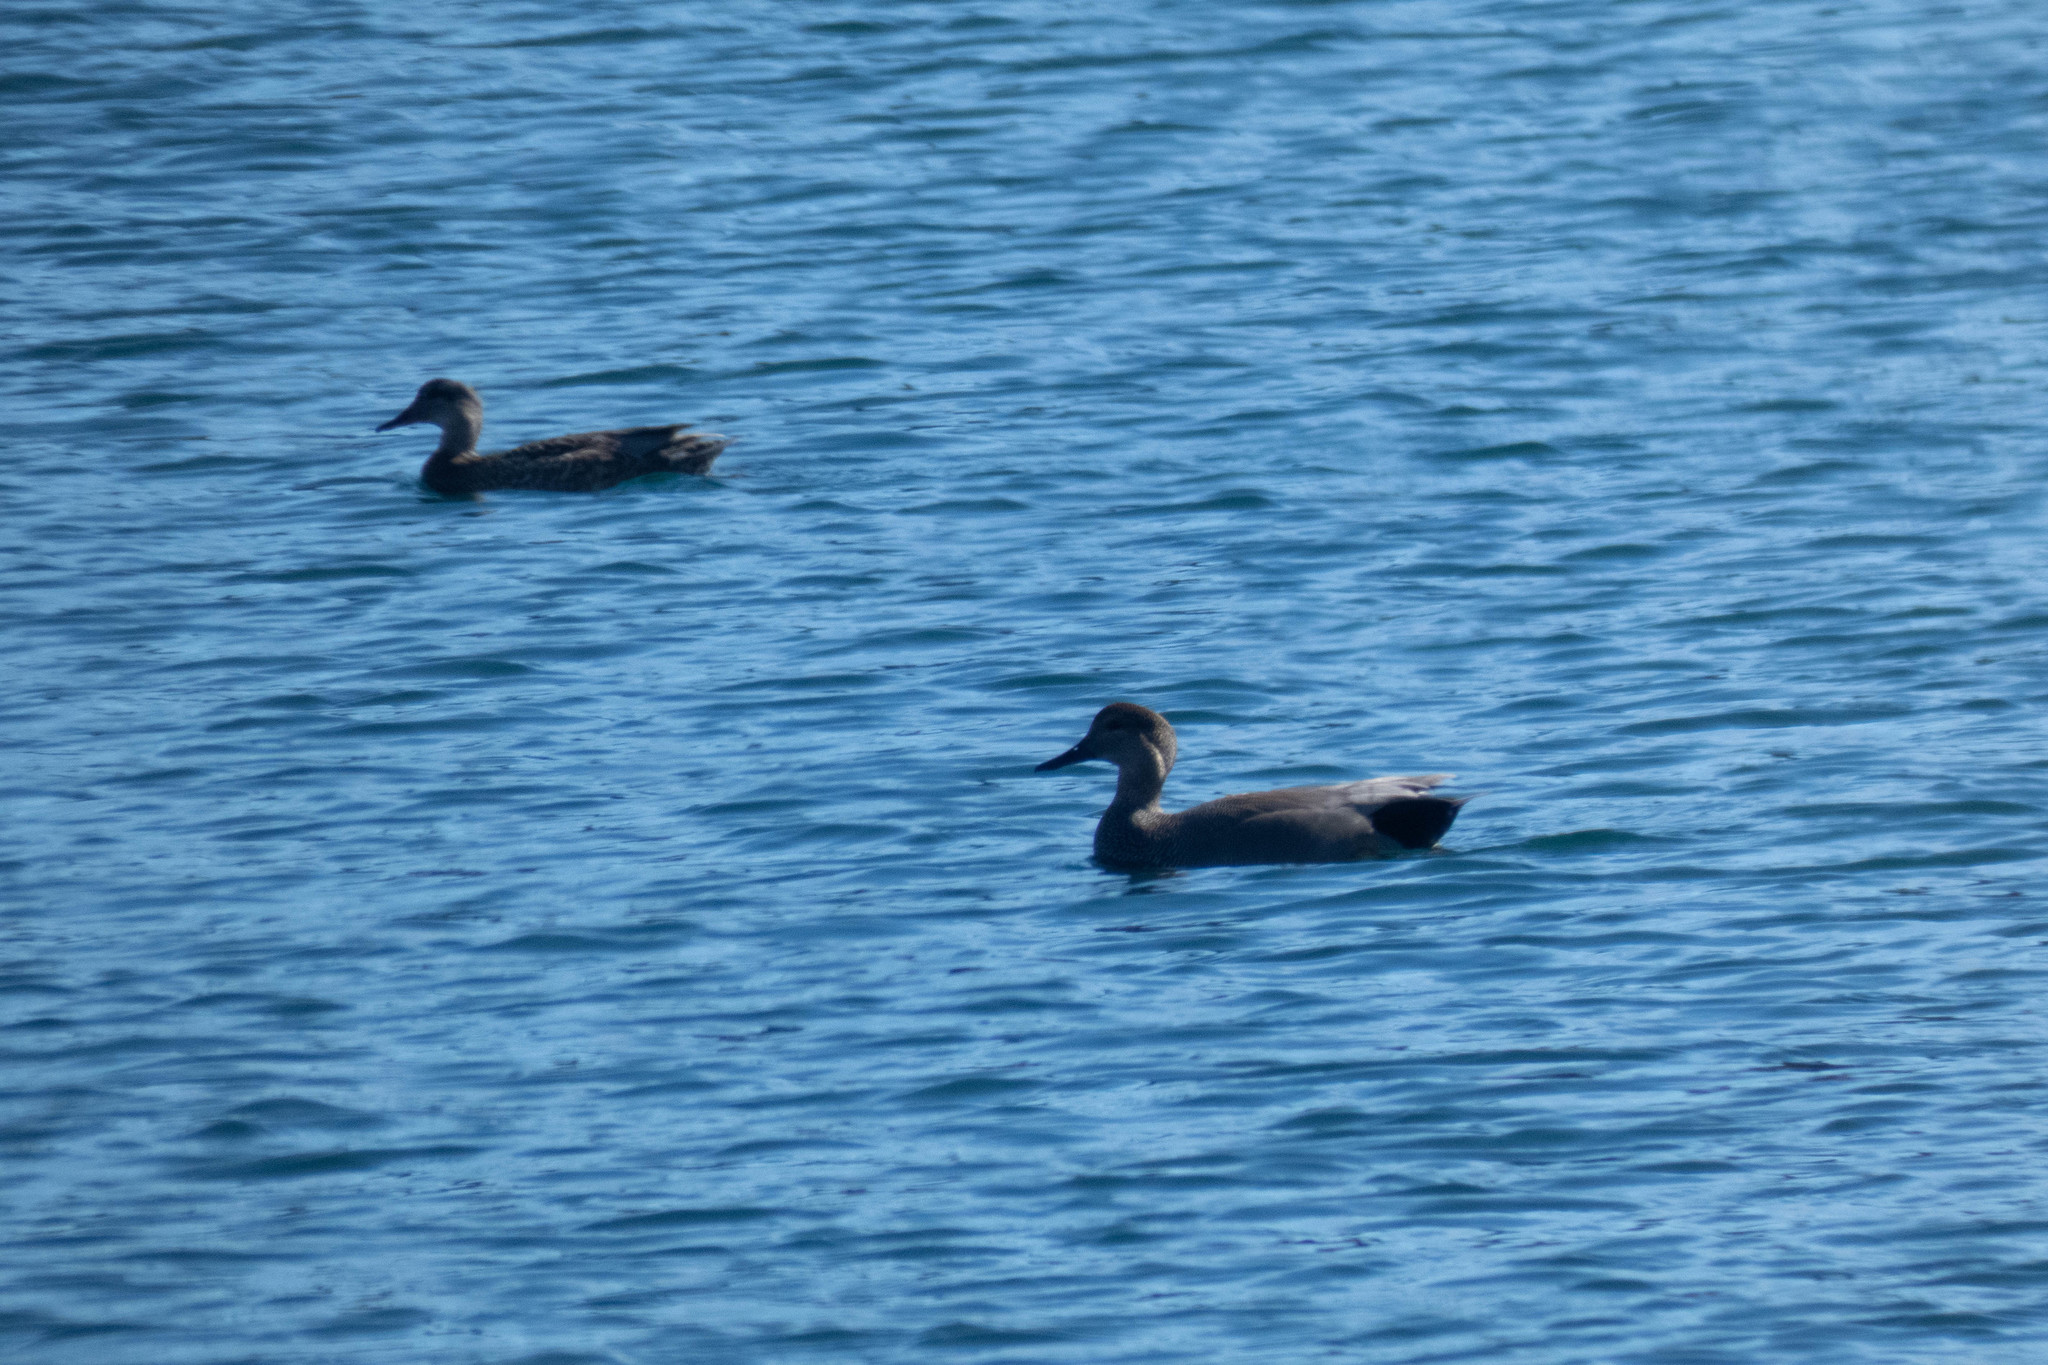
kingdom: Animalia
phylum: Chordata
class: Aves
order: Anseriformes
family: Anatidae
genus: Mareca
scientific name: Mareca strepera
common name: Gadwall
